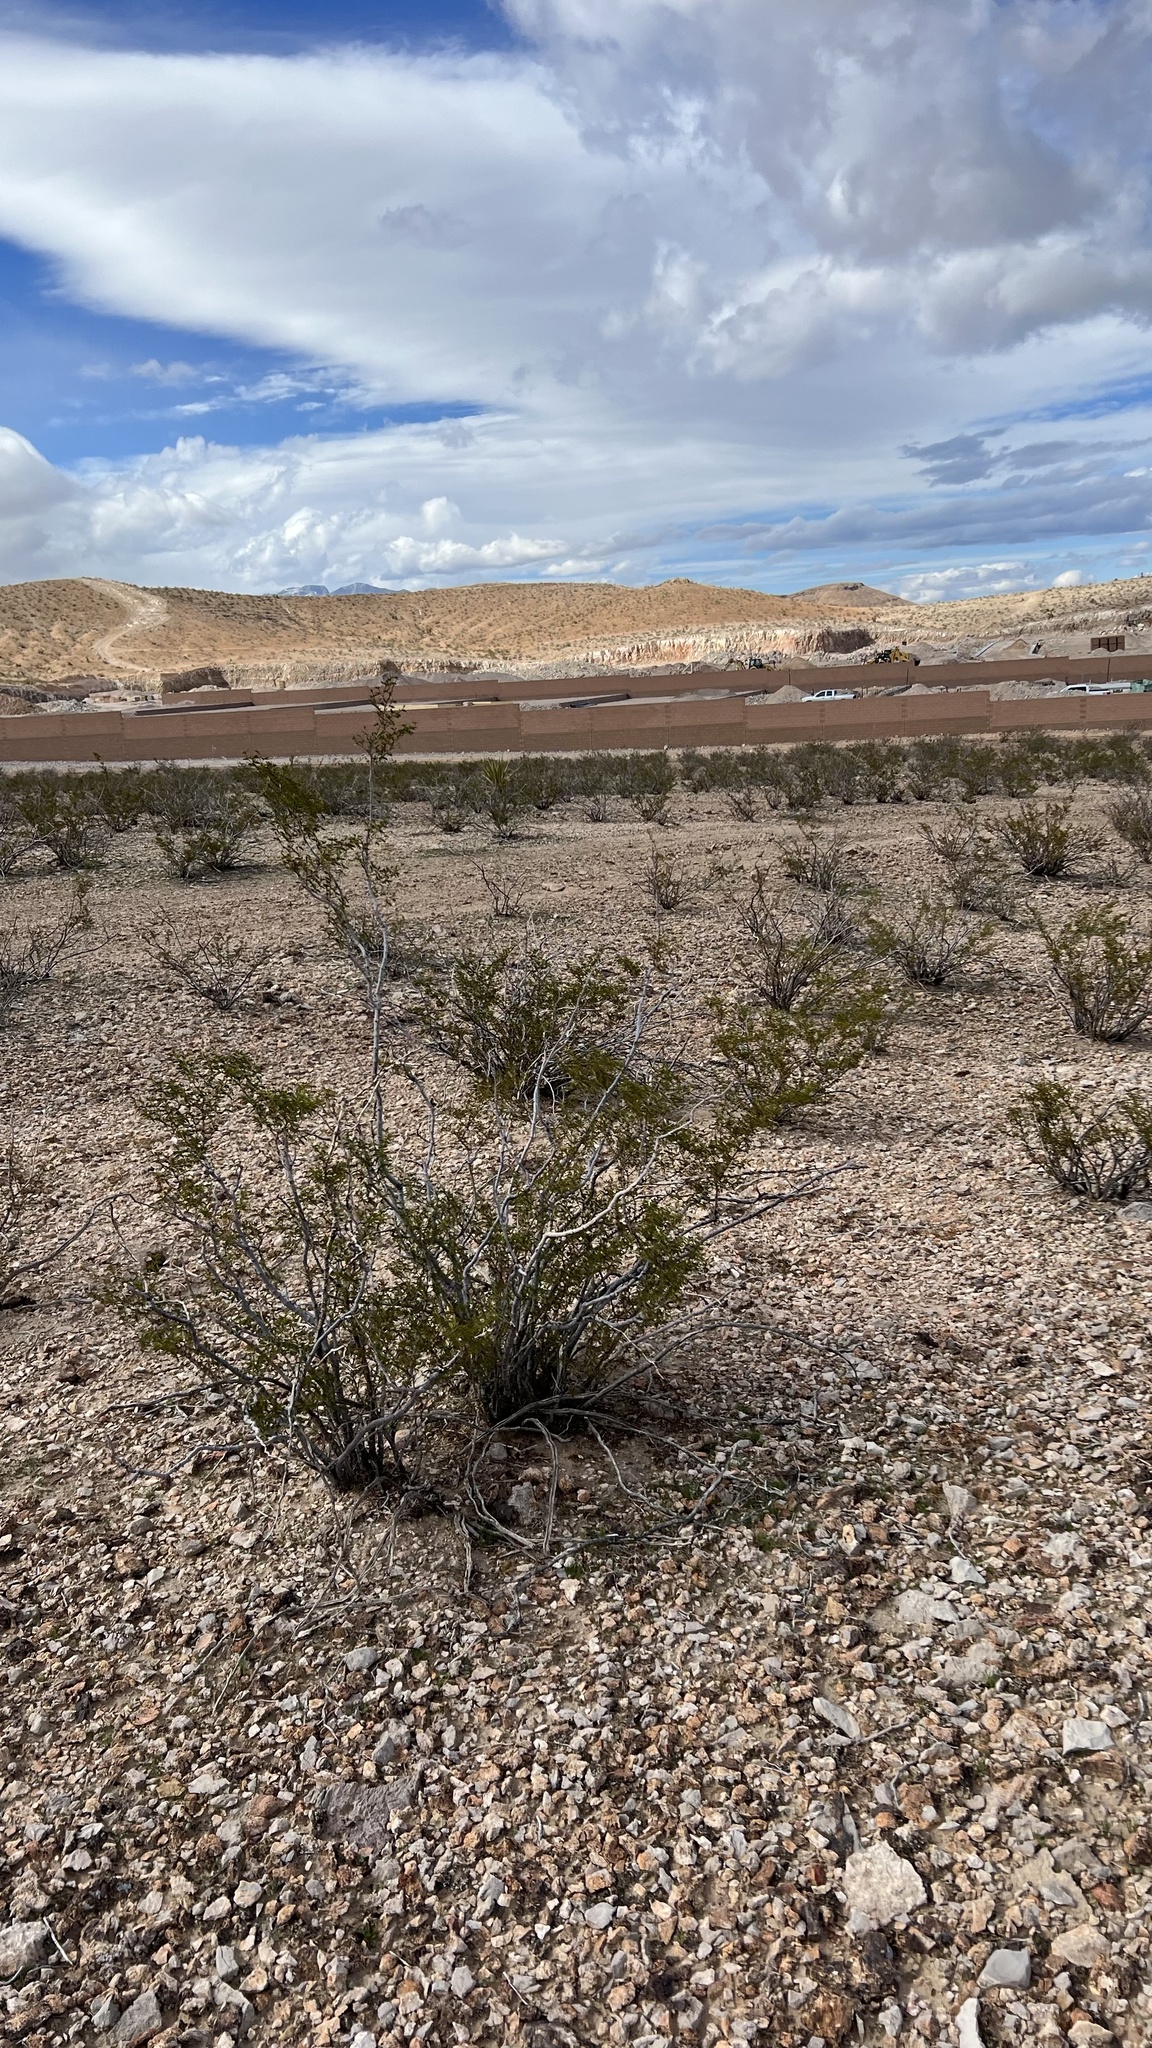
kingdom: Plantae
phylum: Tracheophyta
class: Magnoliopsida
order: Zygophyllales
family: Zygophyllaceae
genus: Larrea
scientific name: Larrea tridentata
